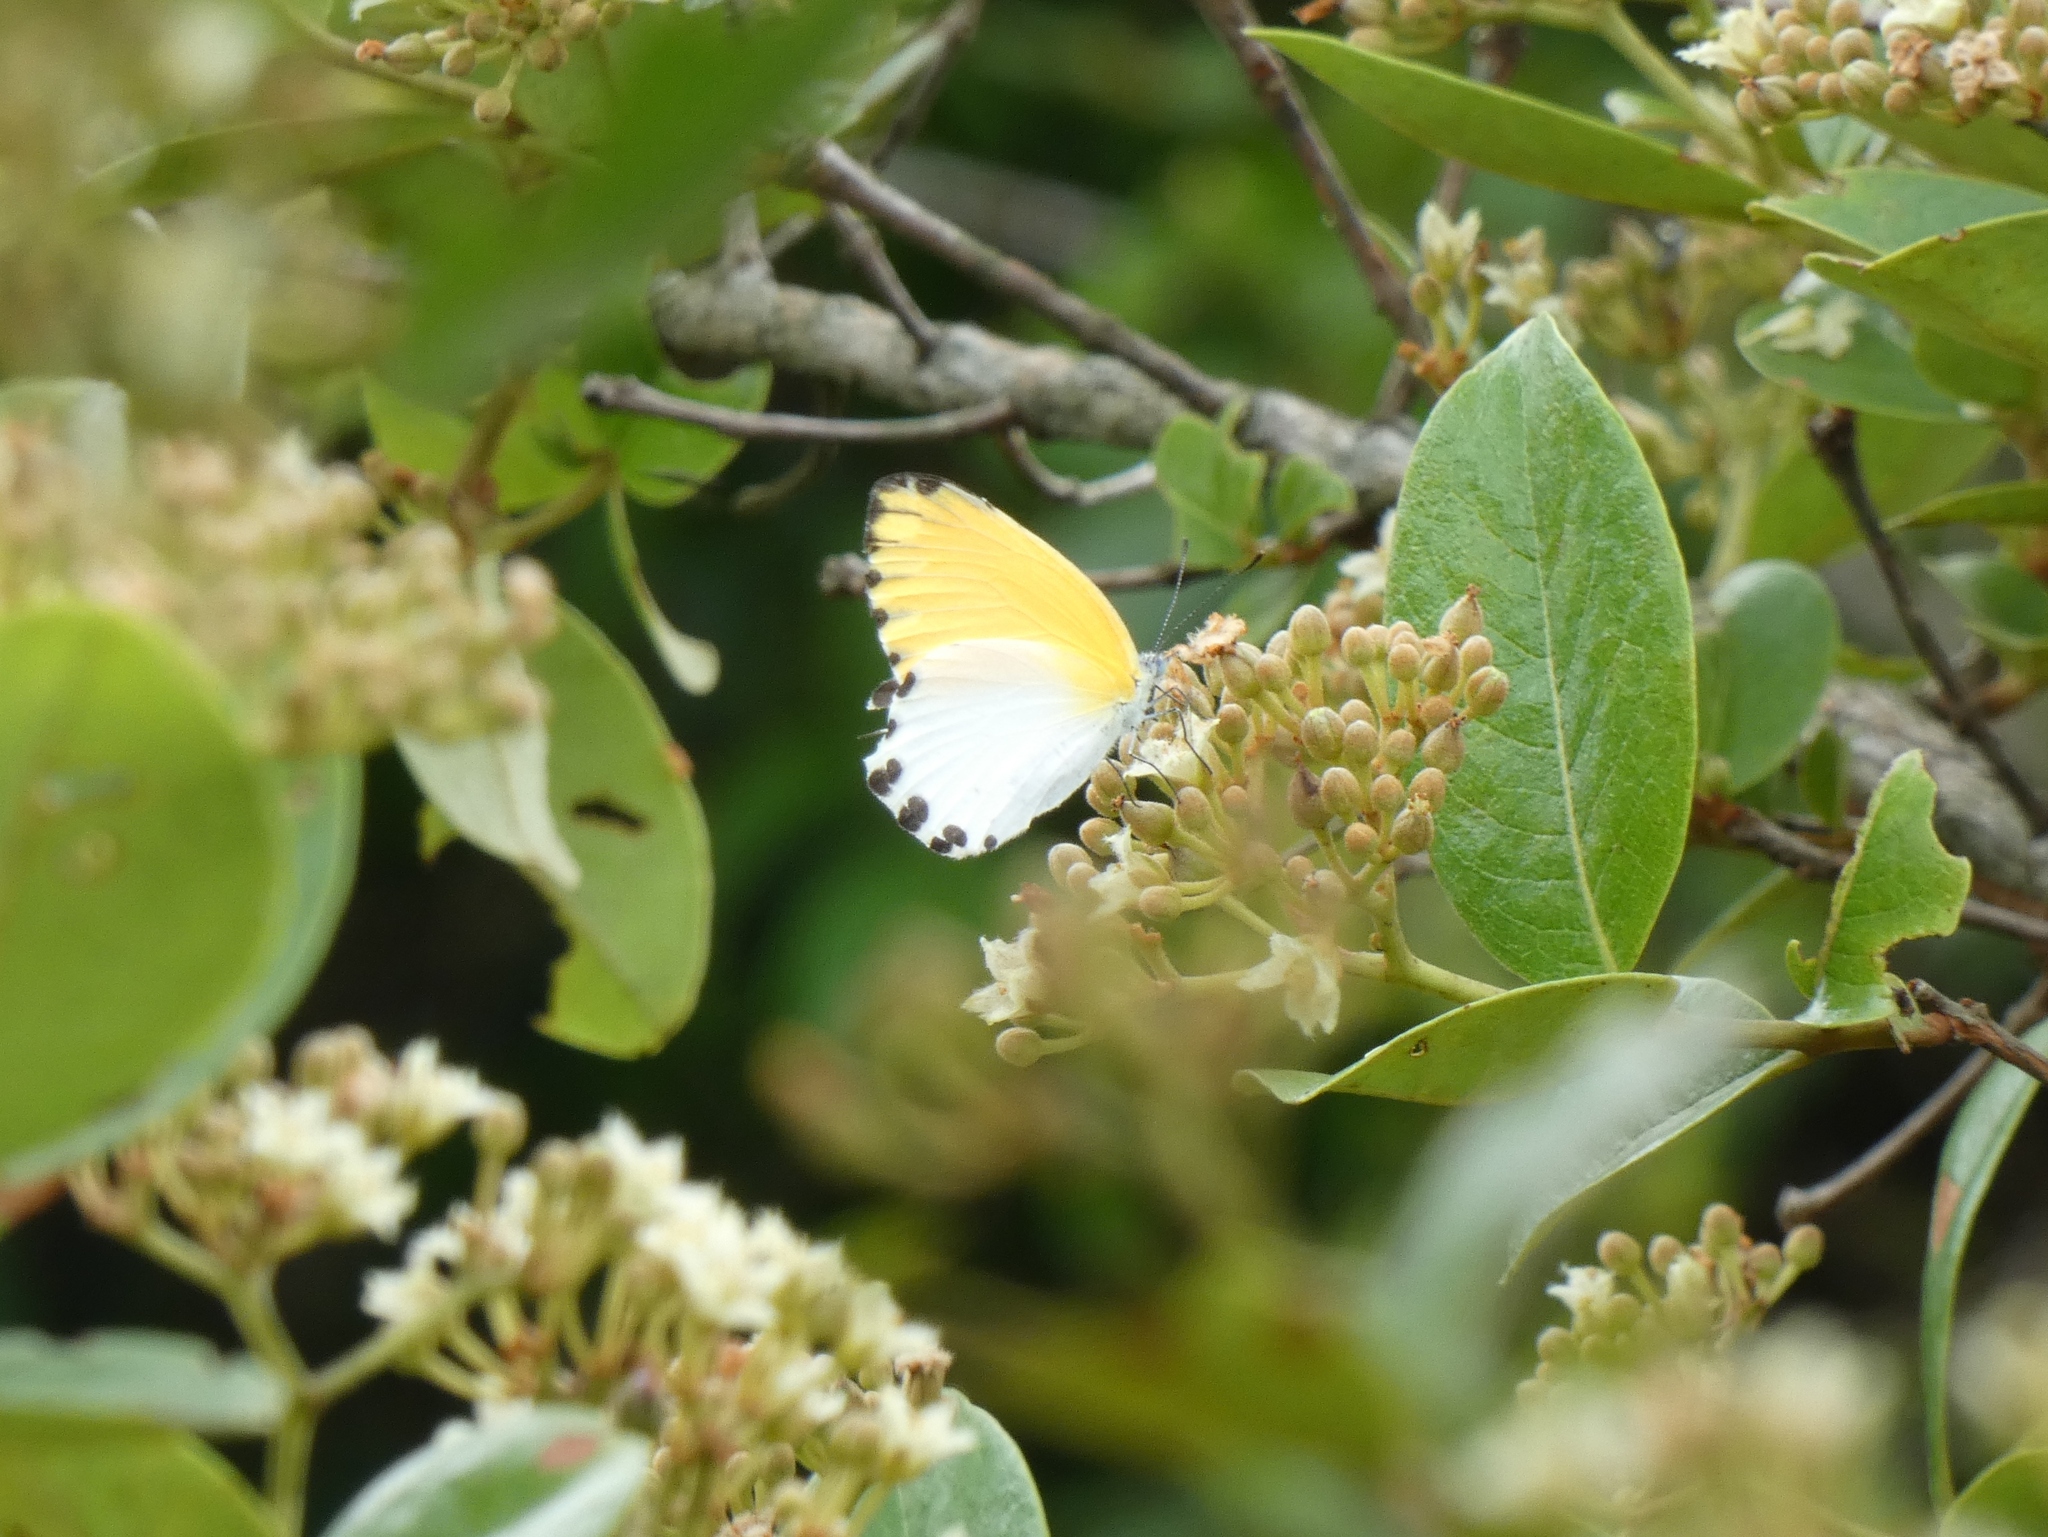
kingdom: Animalia
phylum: Arthropoda
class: Insecta
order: Lepidoptera
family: Pieridae
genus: Mylothris
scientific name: Mylothris rhodope
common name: Rhodope
